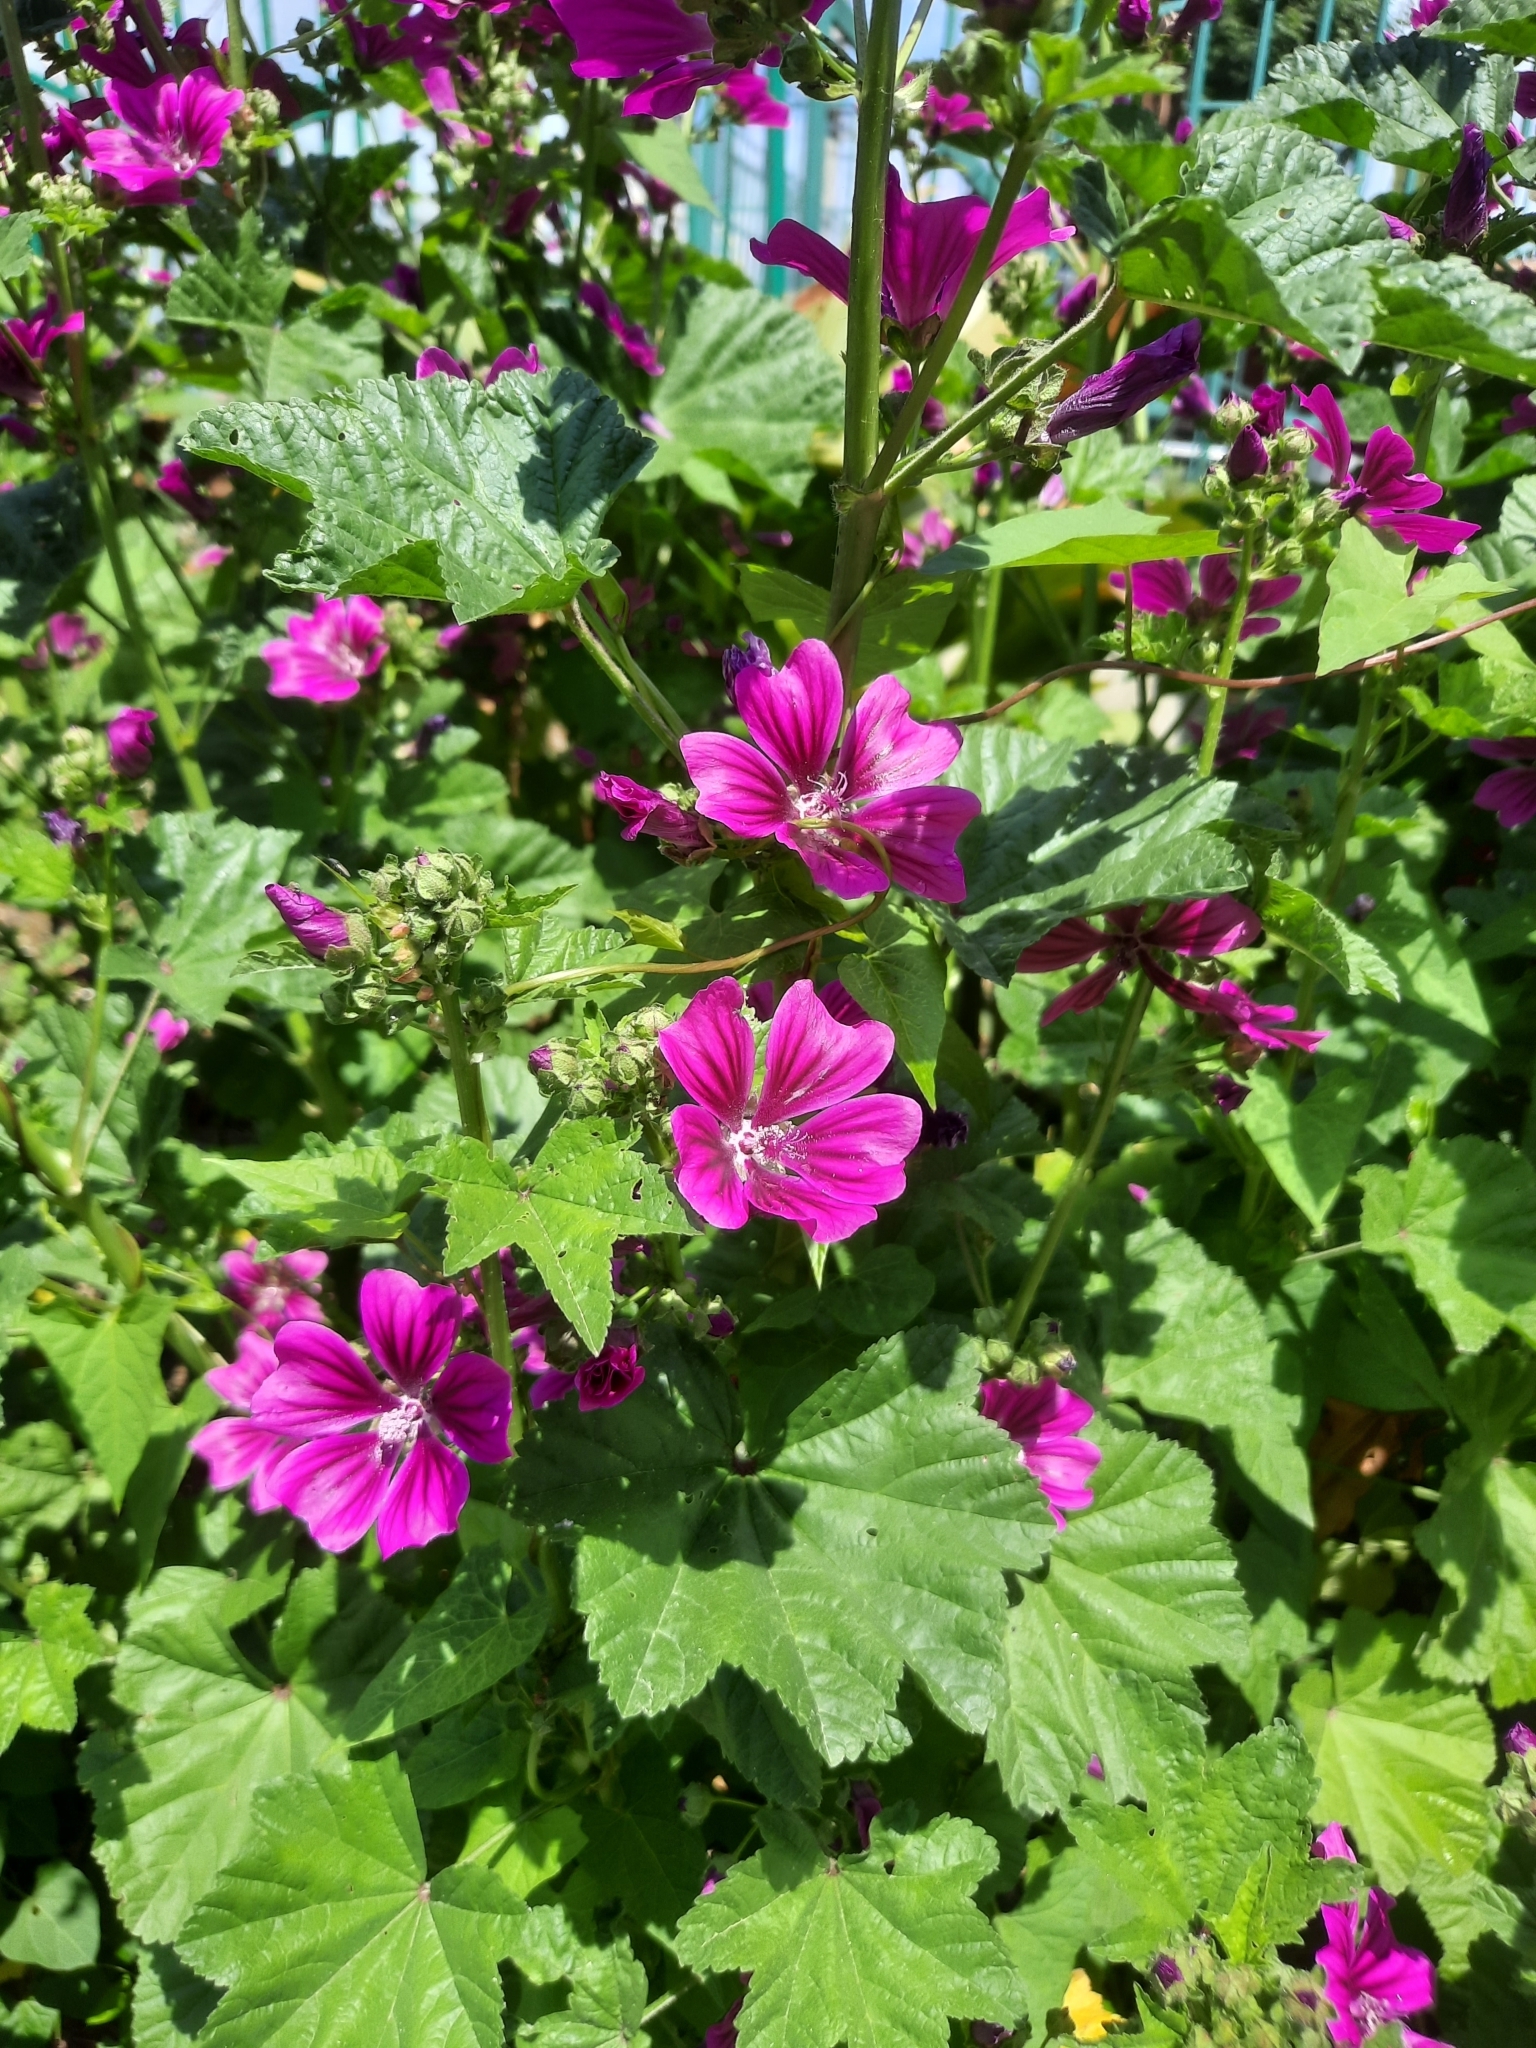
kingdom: Plantae
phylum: Tracheophyta
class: Magnoliopsida
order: Malvales
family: Malvaceae
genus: Malva
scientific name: Malva sylvestris
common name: Common mallow
